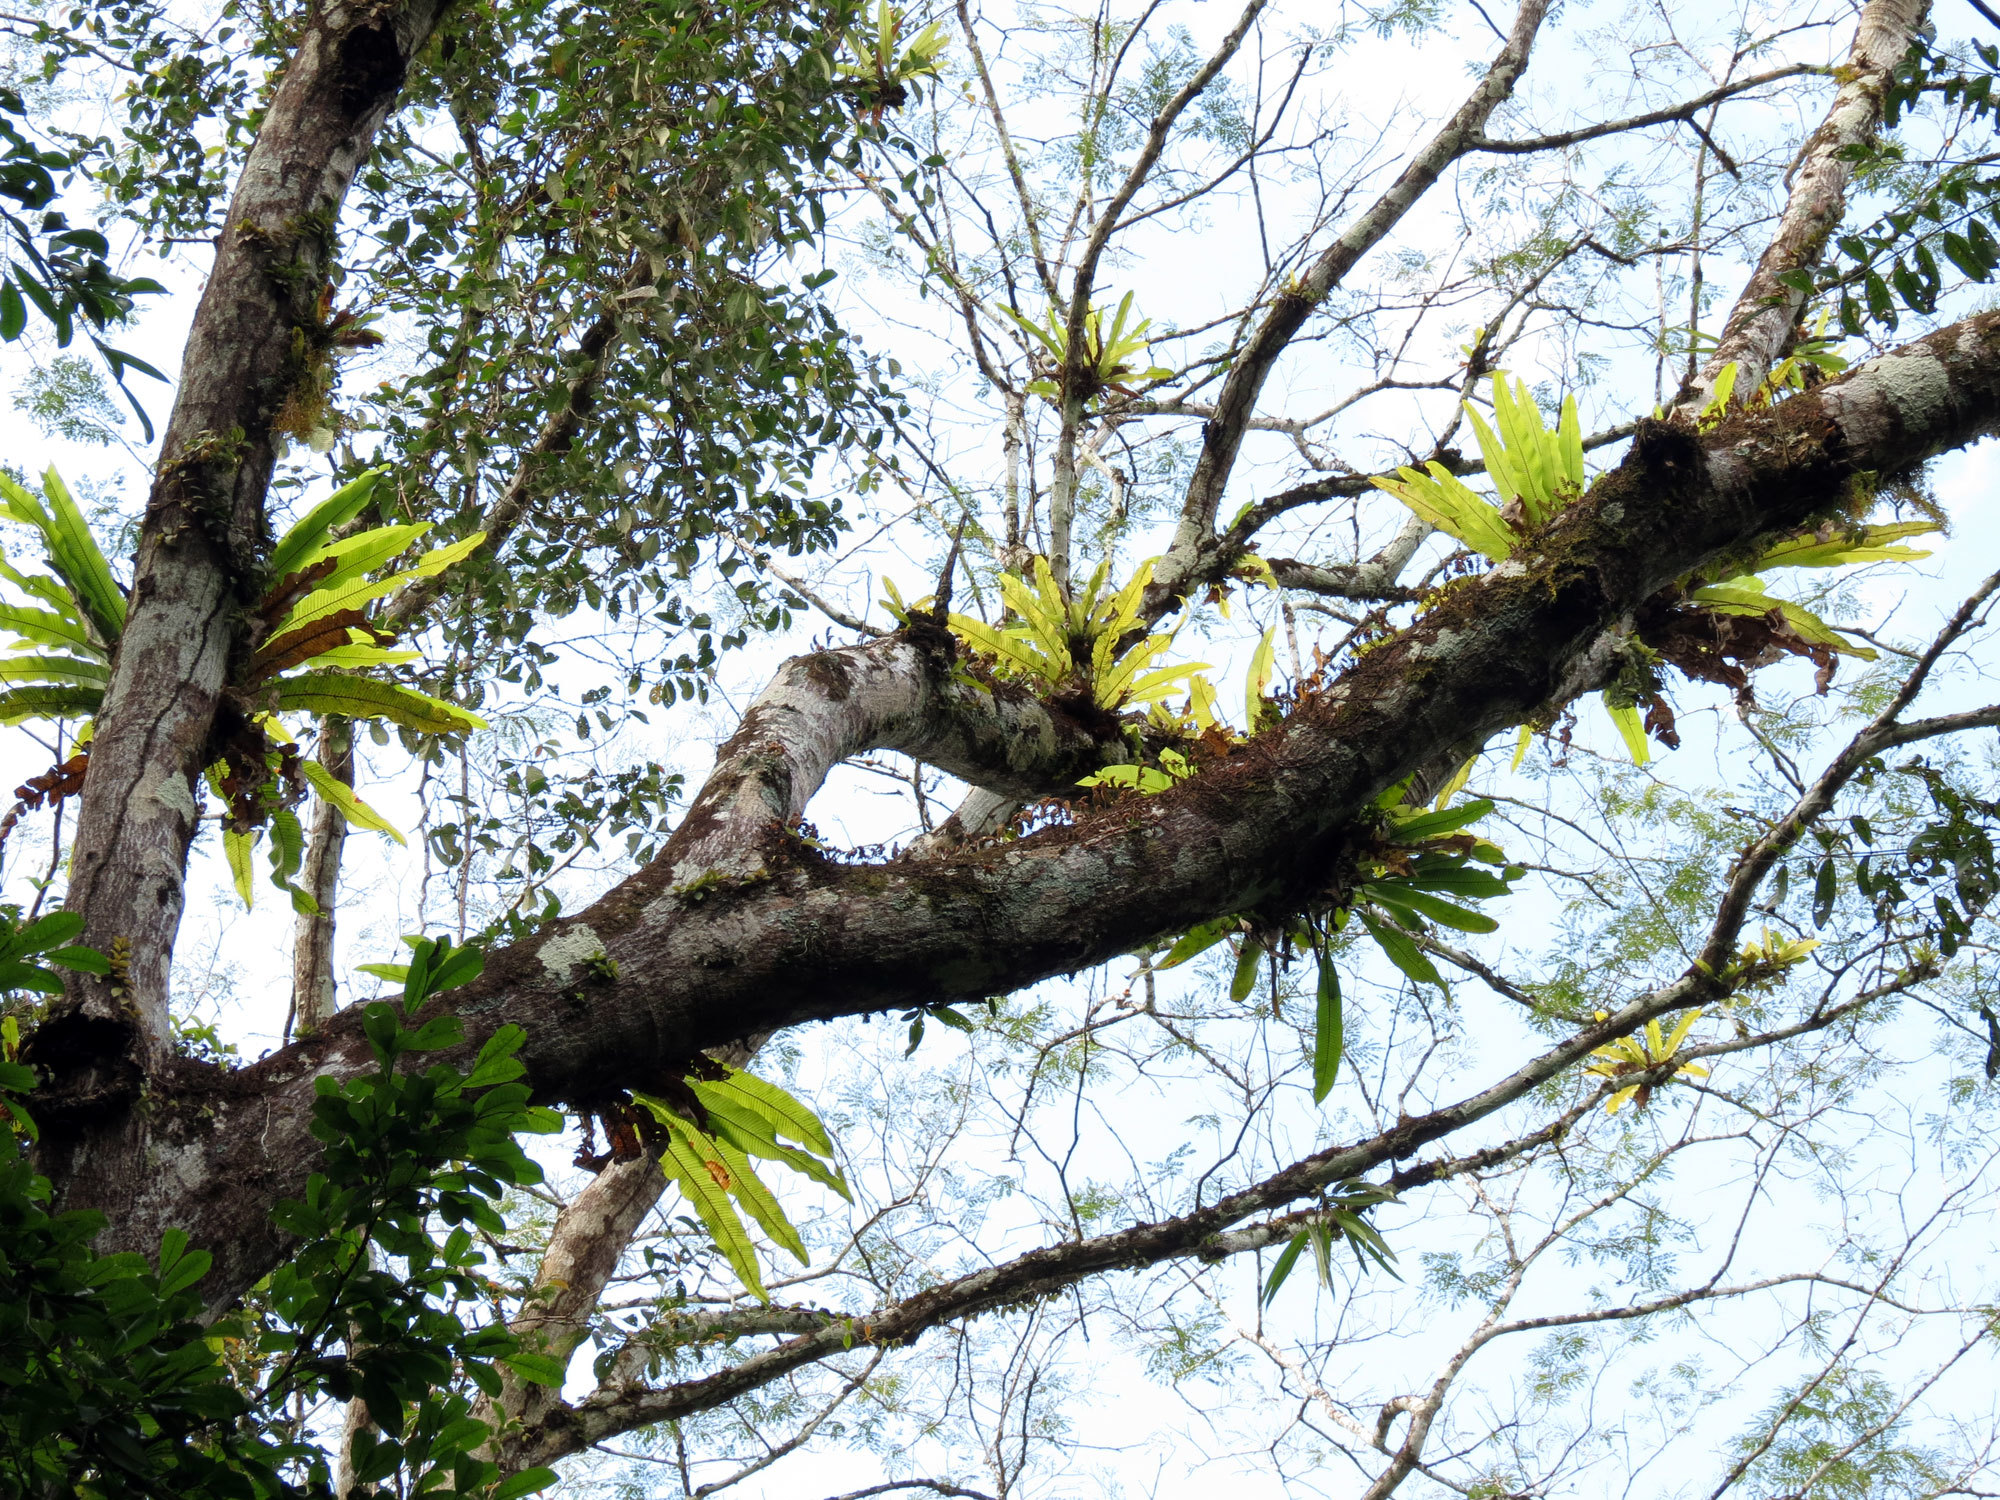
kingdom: Plantae
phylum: Tracheophyta
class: Polypodiopsida
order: Polypodiales
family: Polypodiaceae
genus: Niphidium
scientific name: Niphidium crassifolium
